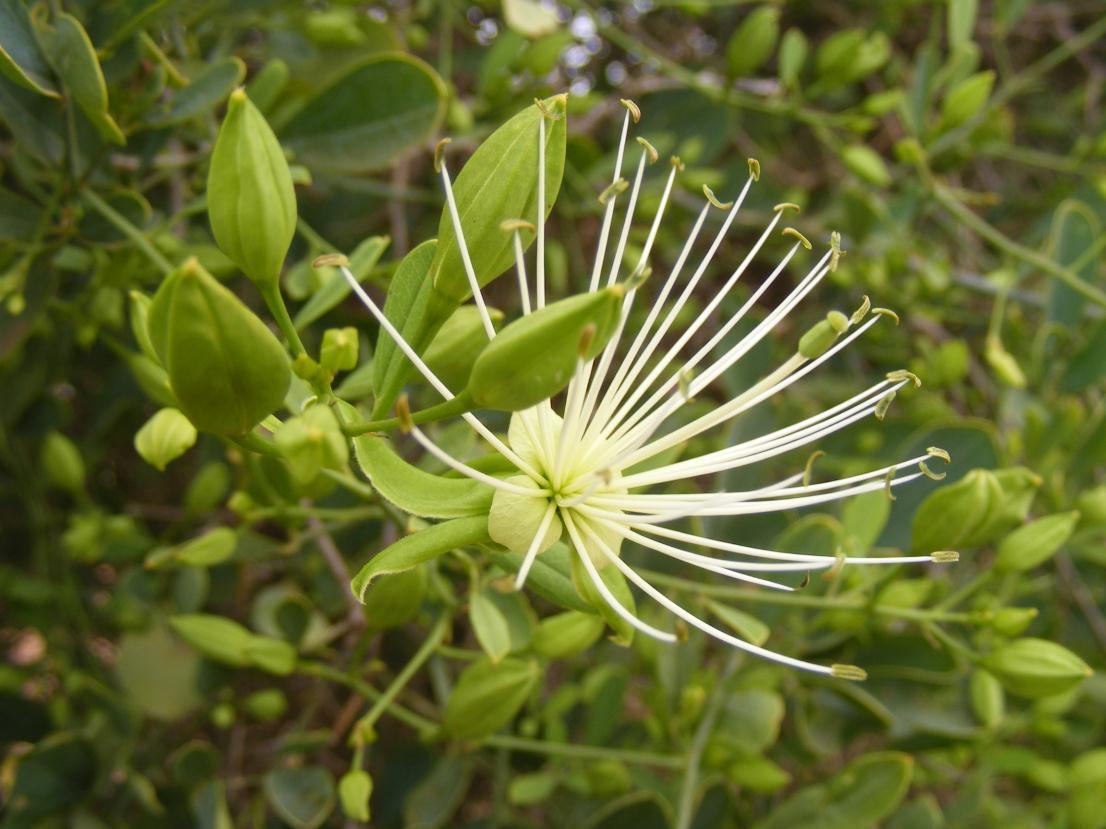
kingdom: Plantae
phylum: Tracheophyta
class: Magnoliopsida
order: Brassicales
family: Capparaceae
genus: Maerua
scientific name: Maerua juncea
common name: Rough-skinned bush cherry
